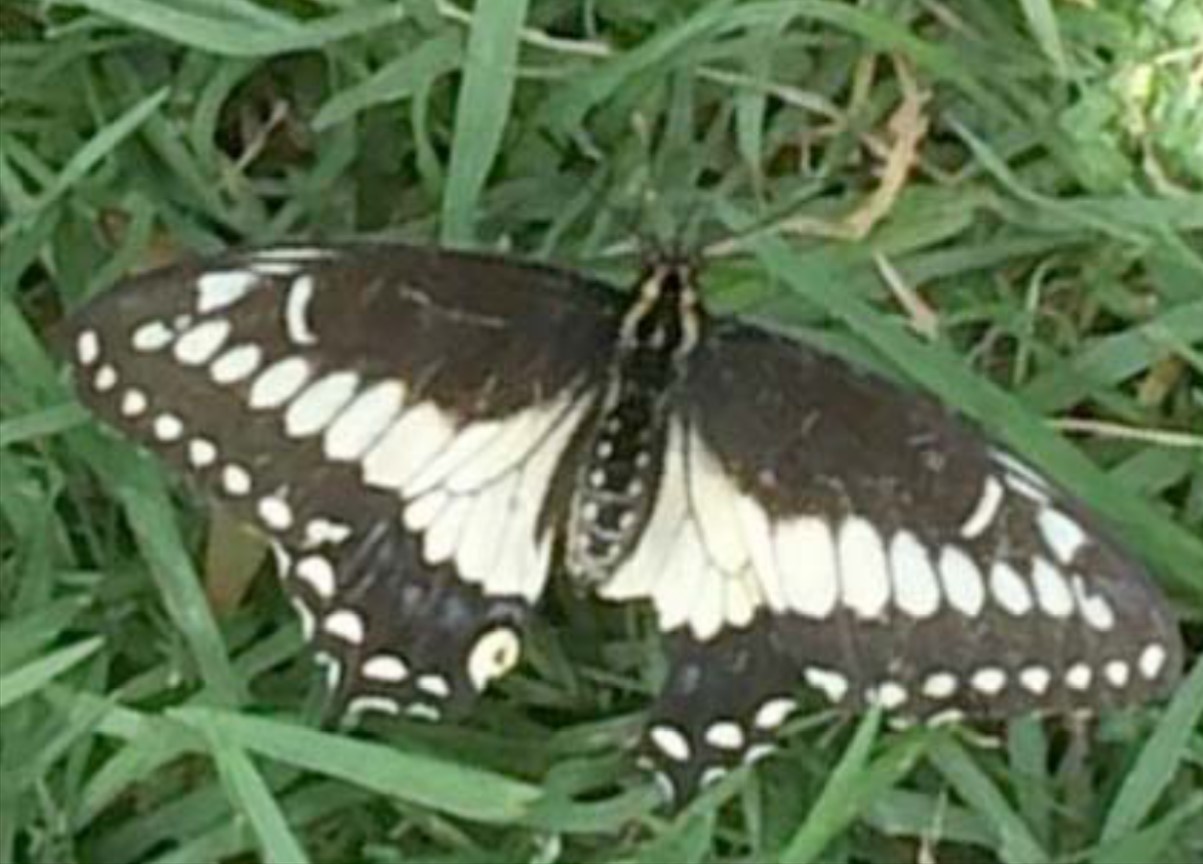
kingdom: Animalia
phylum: Arthropoda
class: Insecta
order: Lepidoptera
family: Papilionidae
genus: Papilio
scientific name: Papilio polyxenes
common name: Black swallowtail
